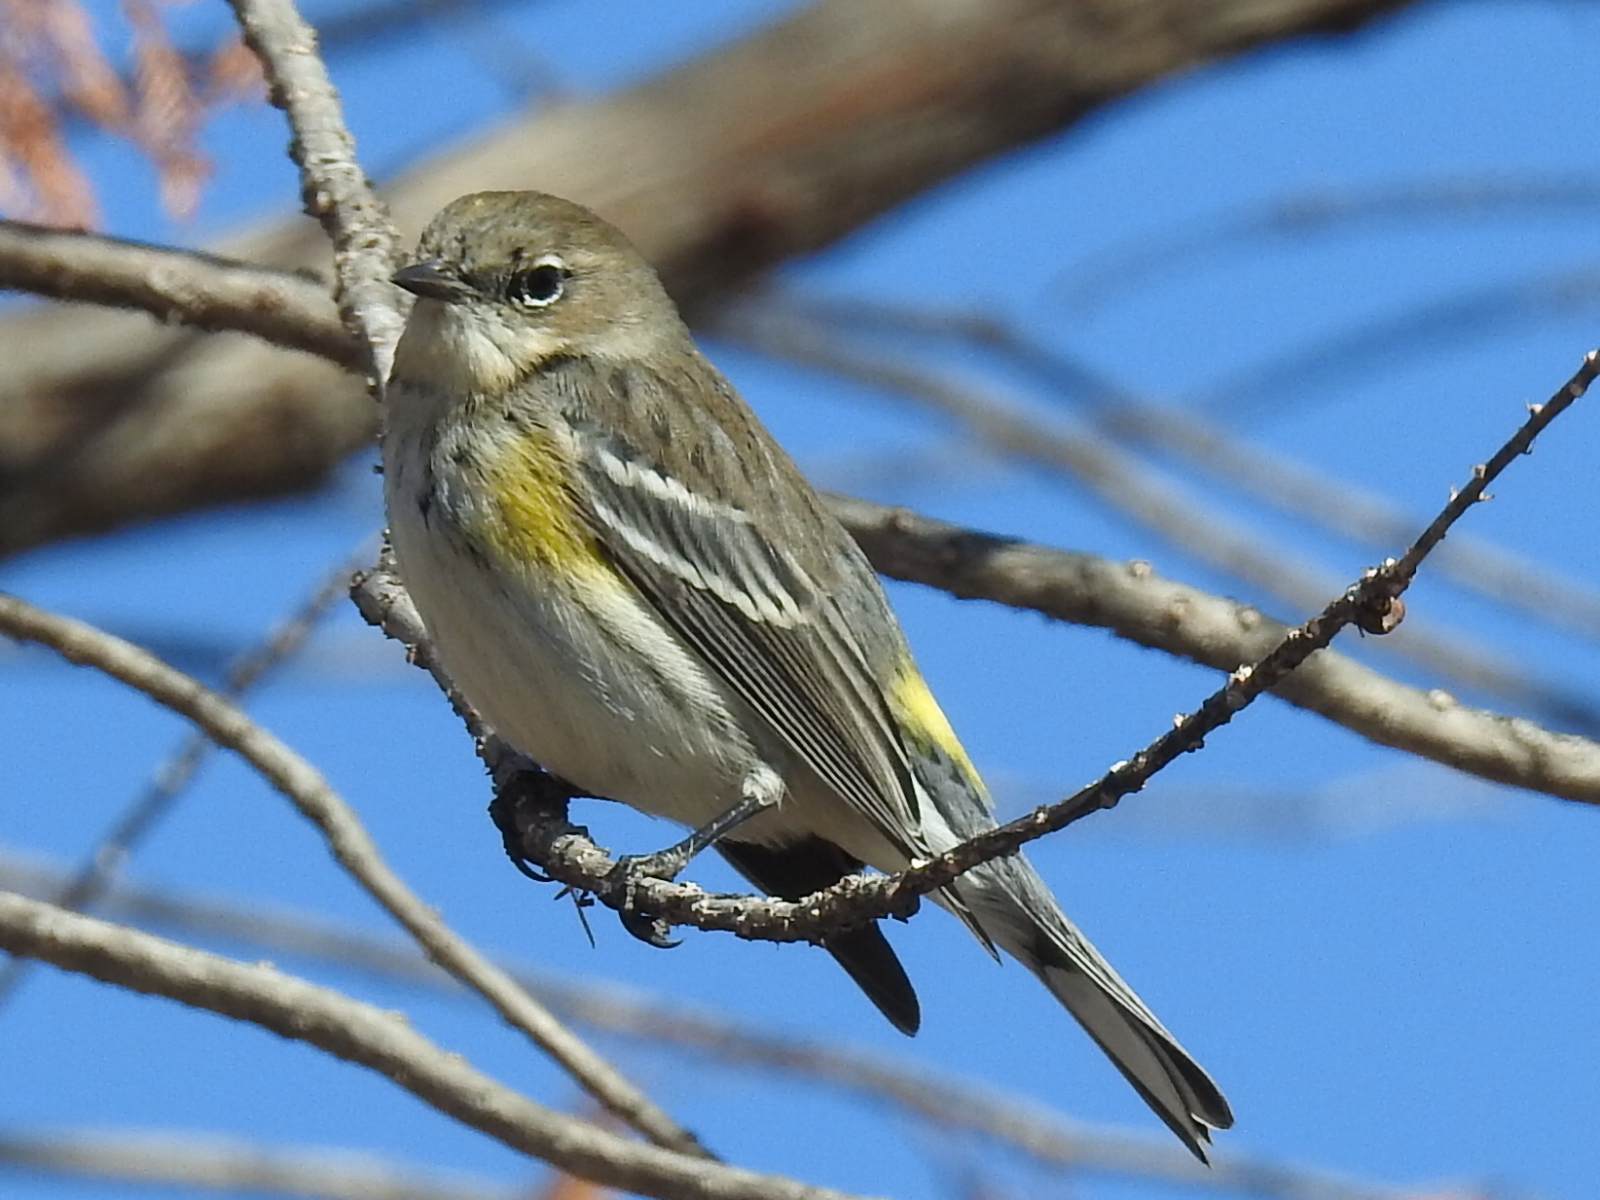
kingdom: Animalia
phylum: Chordata
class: Aves
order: Passeriformes
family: Parulidae
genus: Setophaga
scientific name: Setophaga coronata
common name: Myrtle warbler
